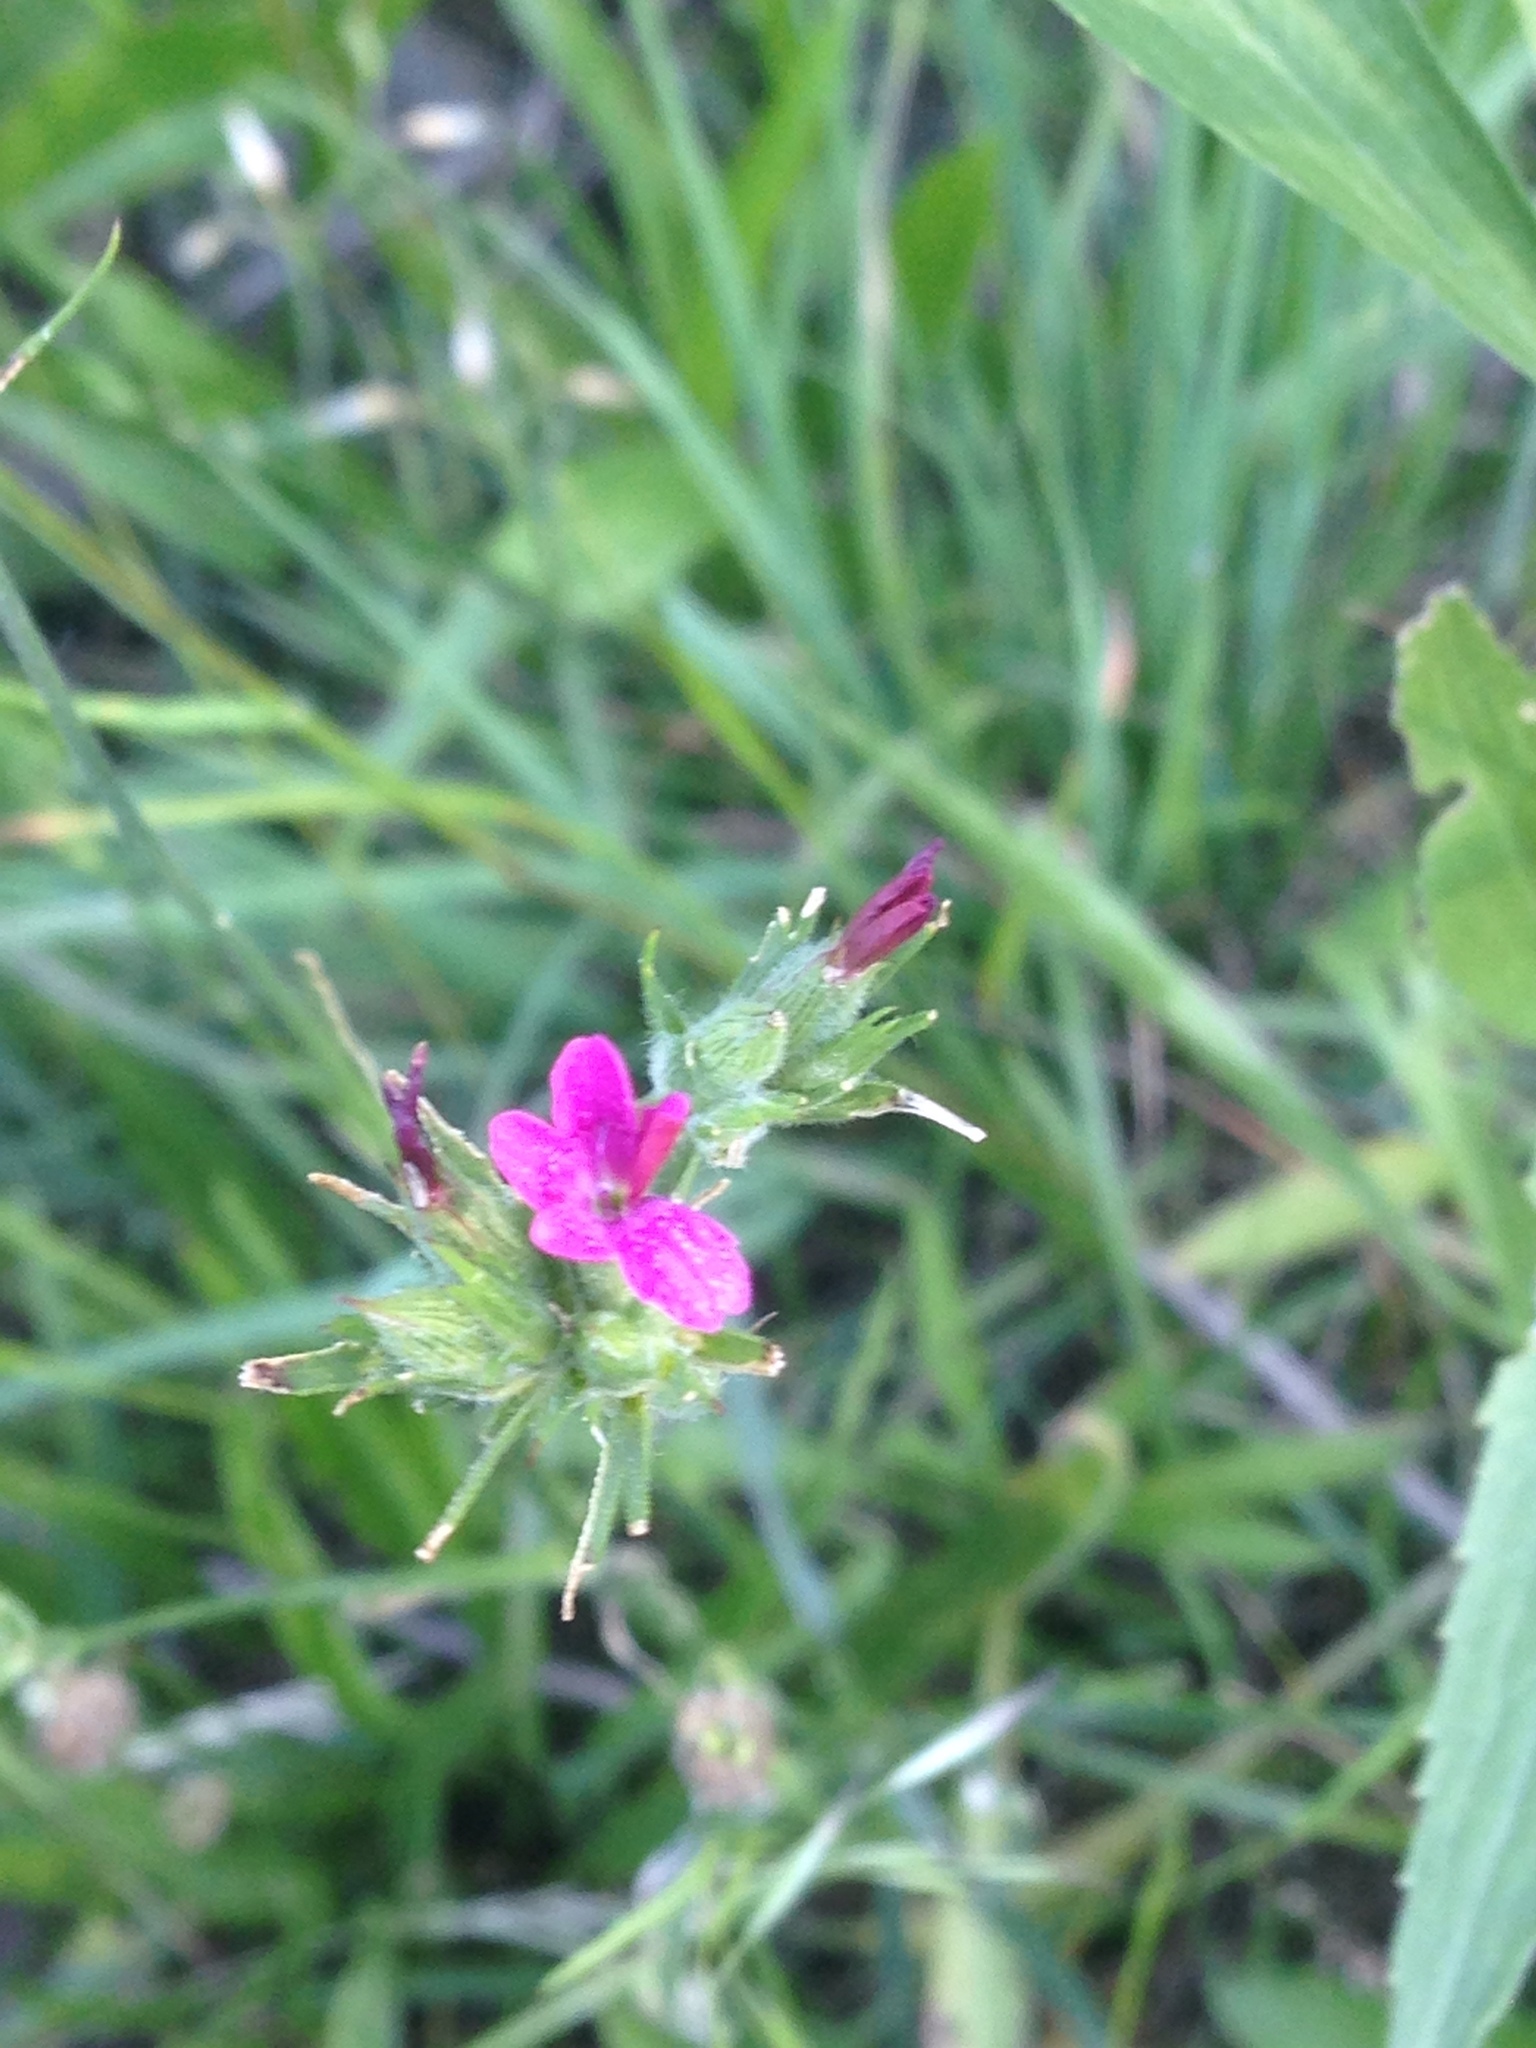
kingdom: Plantae
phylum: Tracheophyta
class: Magnoliopsida
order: Caryophyllales
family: Caryophyllaceae
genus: Dianthus
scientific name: Dianthus armeria
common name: Deptford pink
